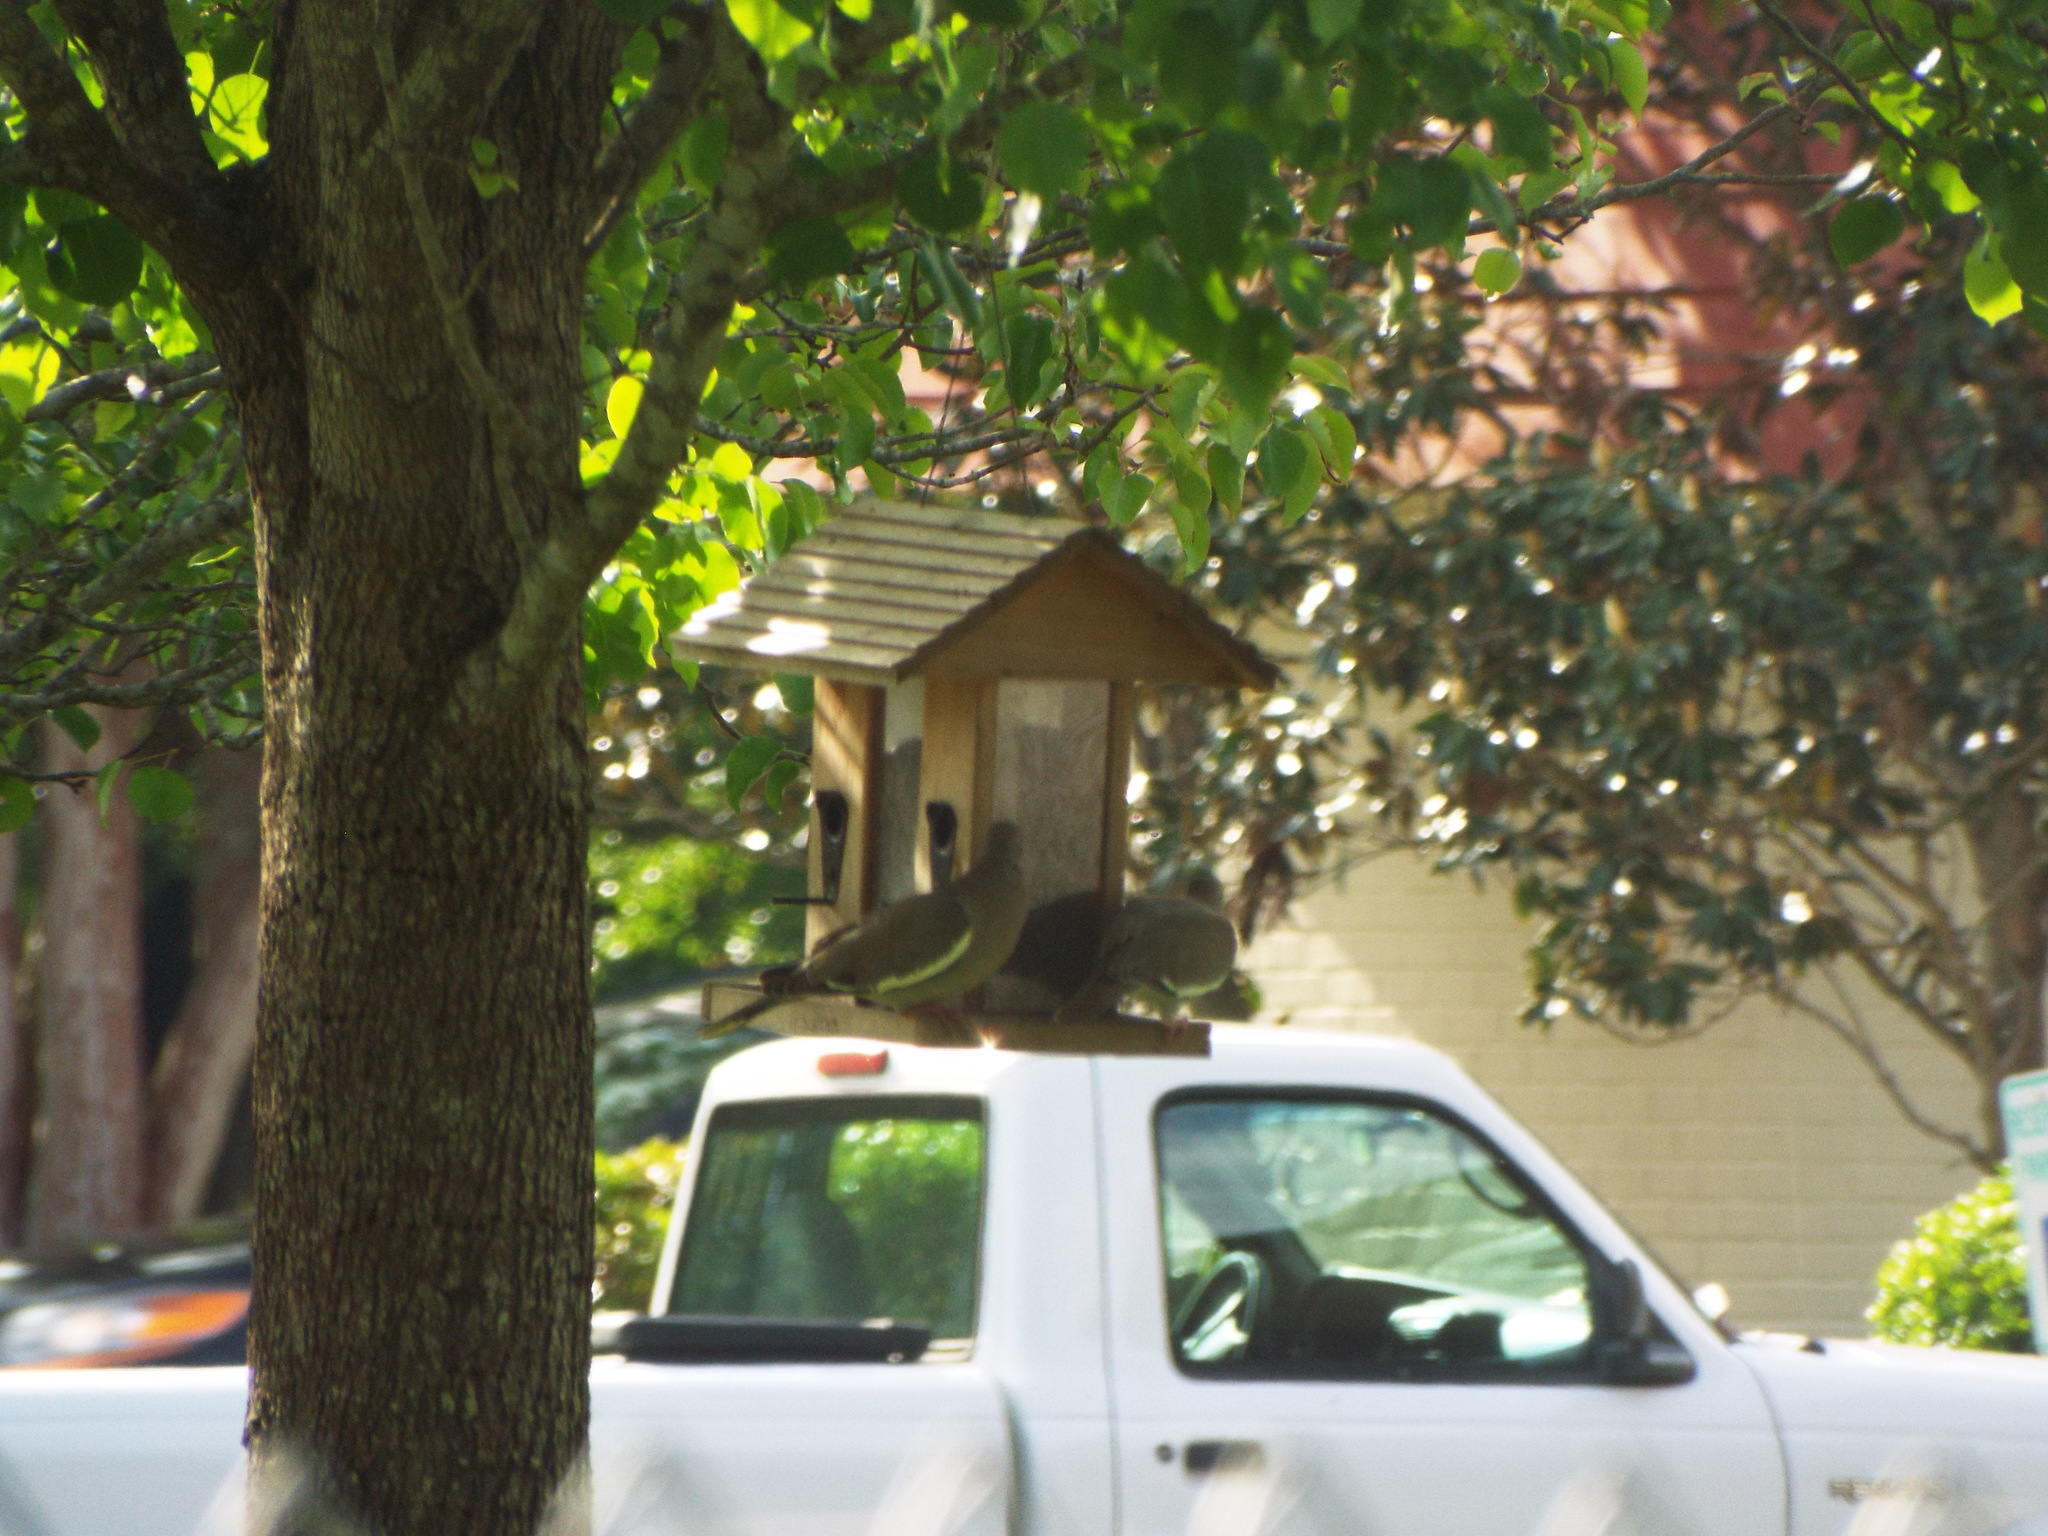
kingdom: Animalia
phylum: Chordata
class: Aves
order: Columbiformes
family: Columbidae
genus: Zenaida
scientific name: Zenaida asiatica
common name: White-winged dove
